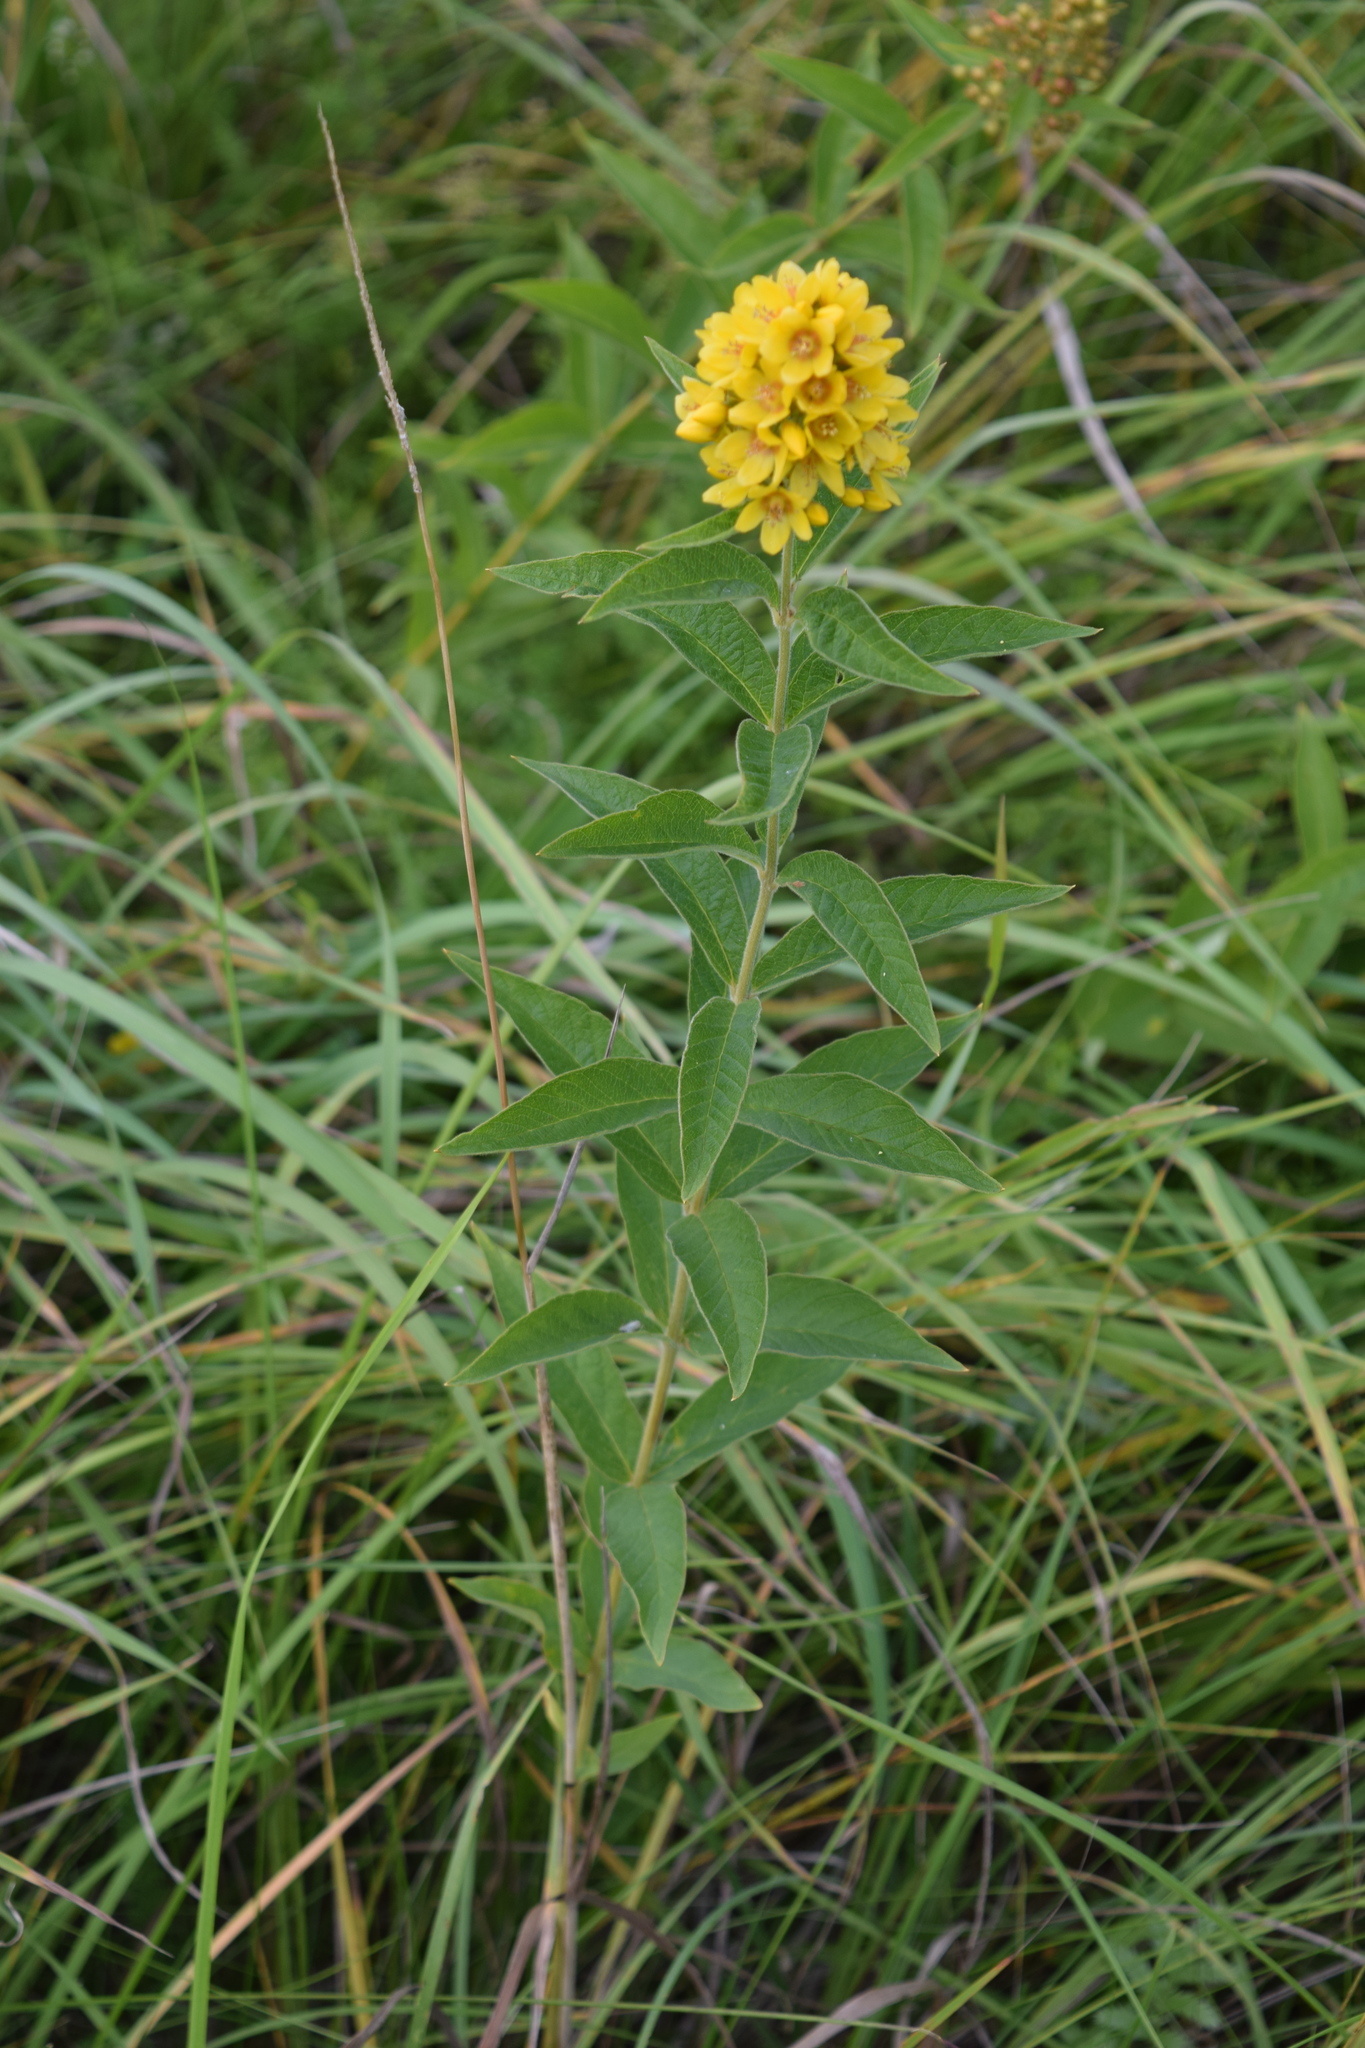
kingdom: Plantae
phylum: Tracheophyta
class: Magnoliopsida
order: Ericales
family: Primulaceae
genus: Lysimachia
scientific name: Lysimachia vulgaris
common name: Yellow loosestrife
